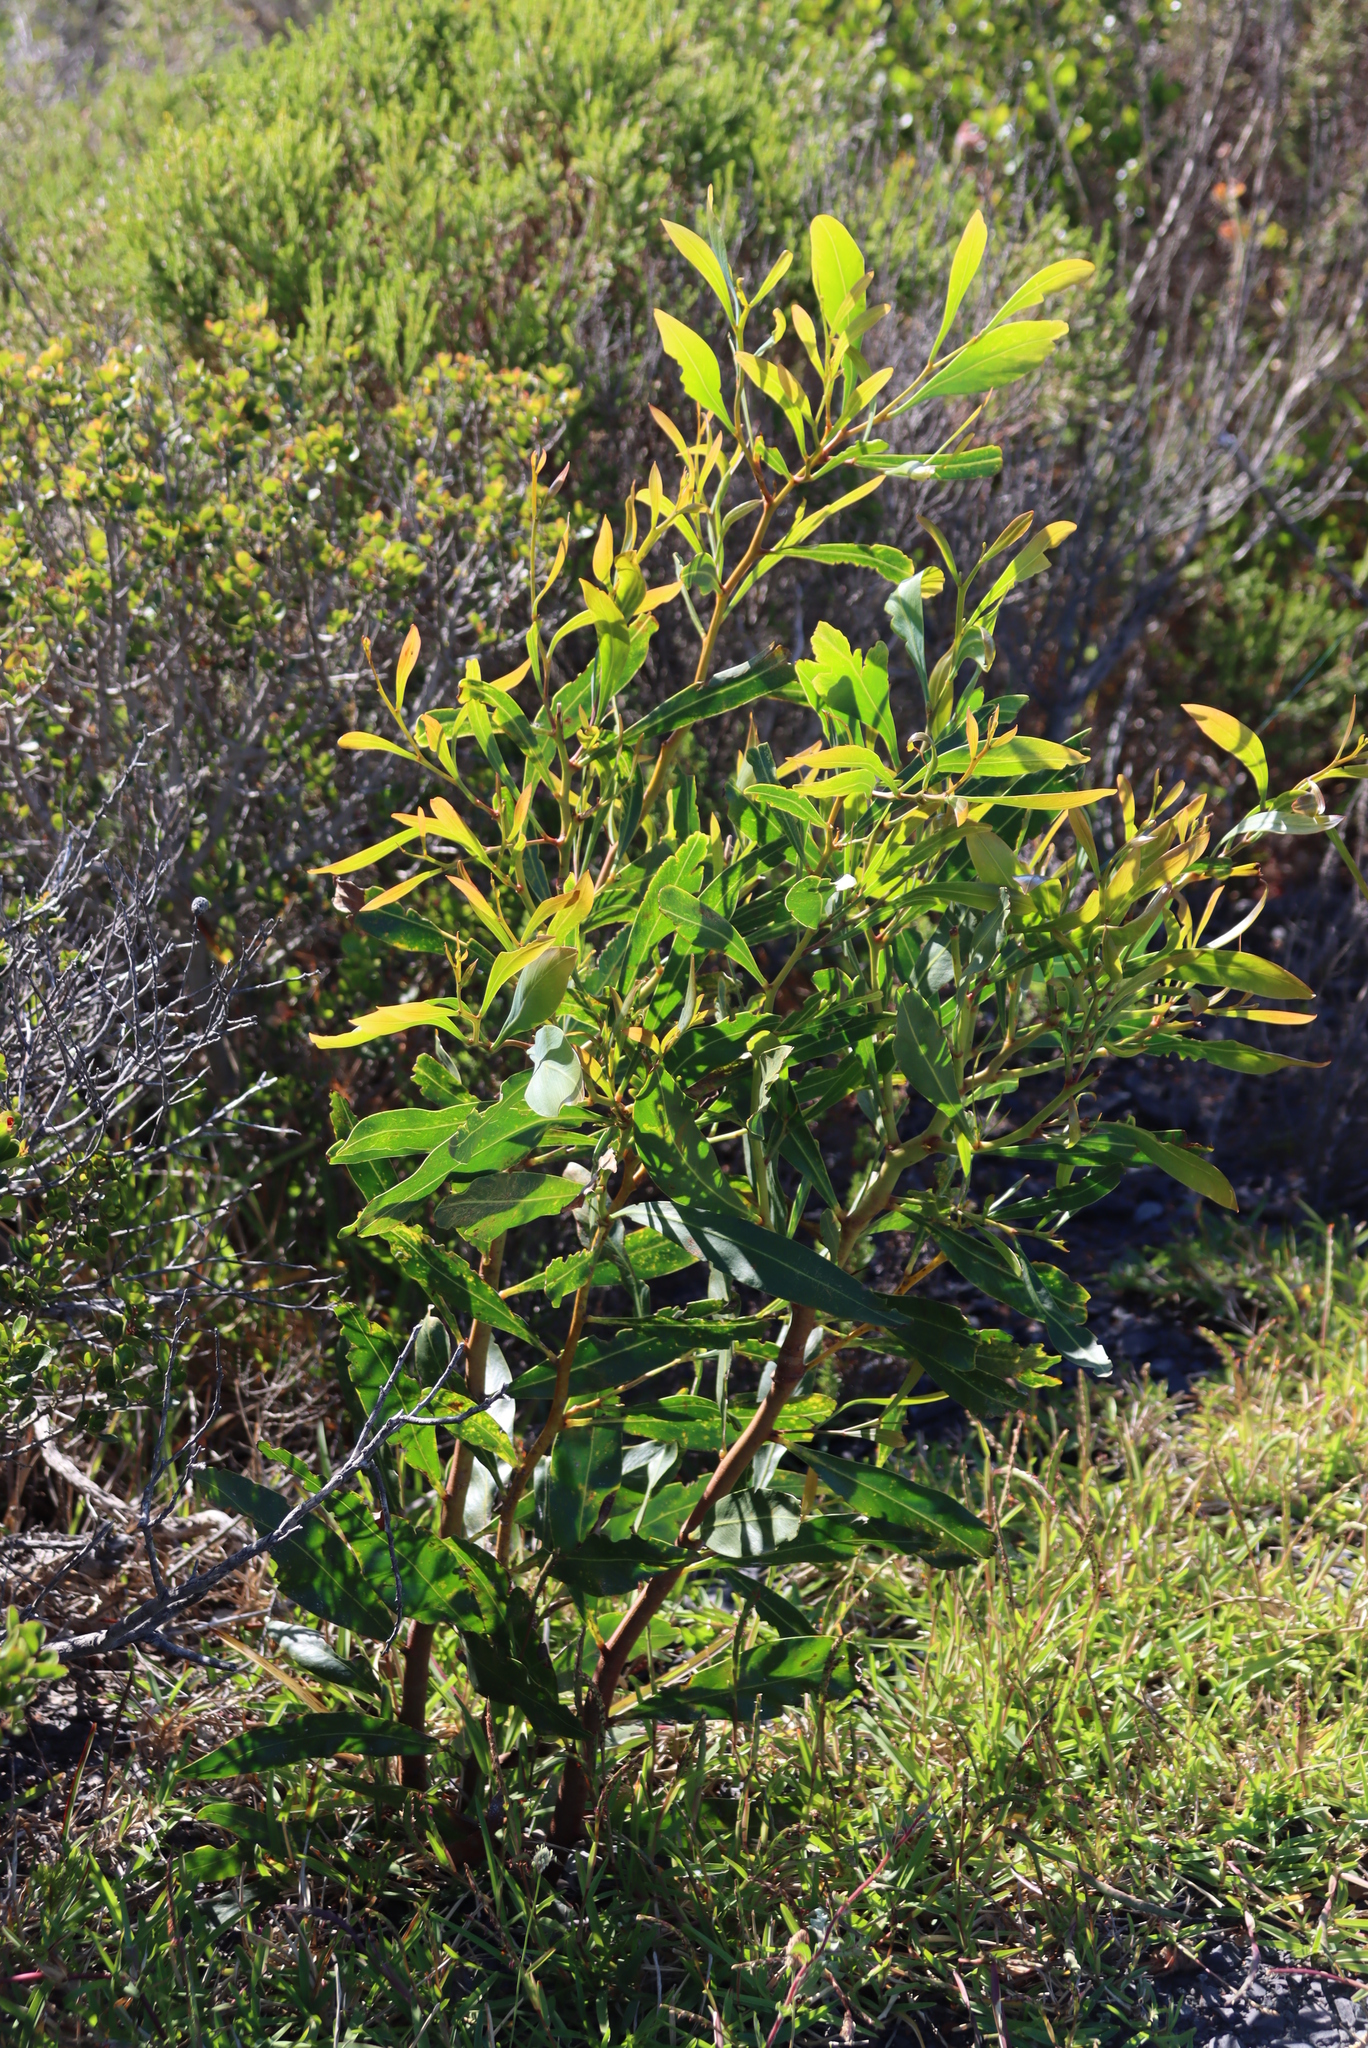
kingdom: Plantae
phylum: Tracheophyta
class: Magnoliopsida
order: Fabales
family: Fabaceae
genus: Acacia
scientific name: Acacia saligna
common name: Orange wattle
